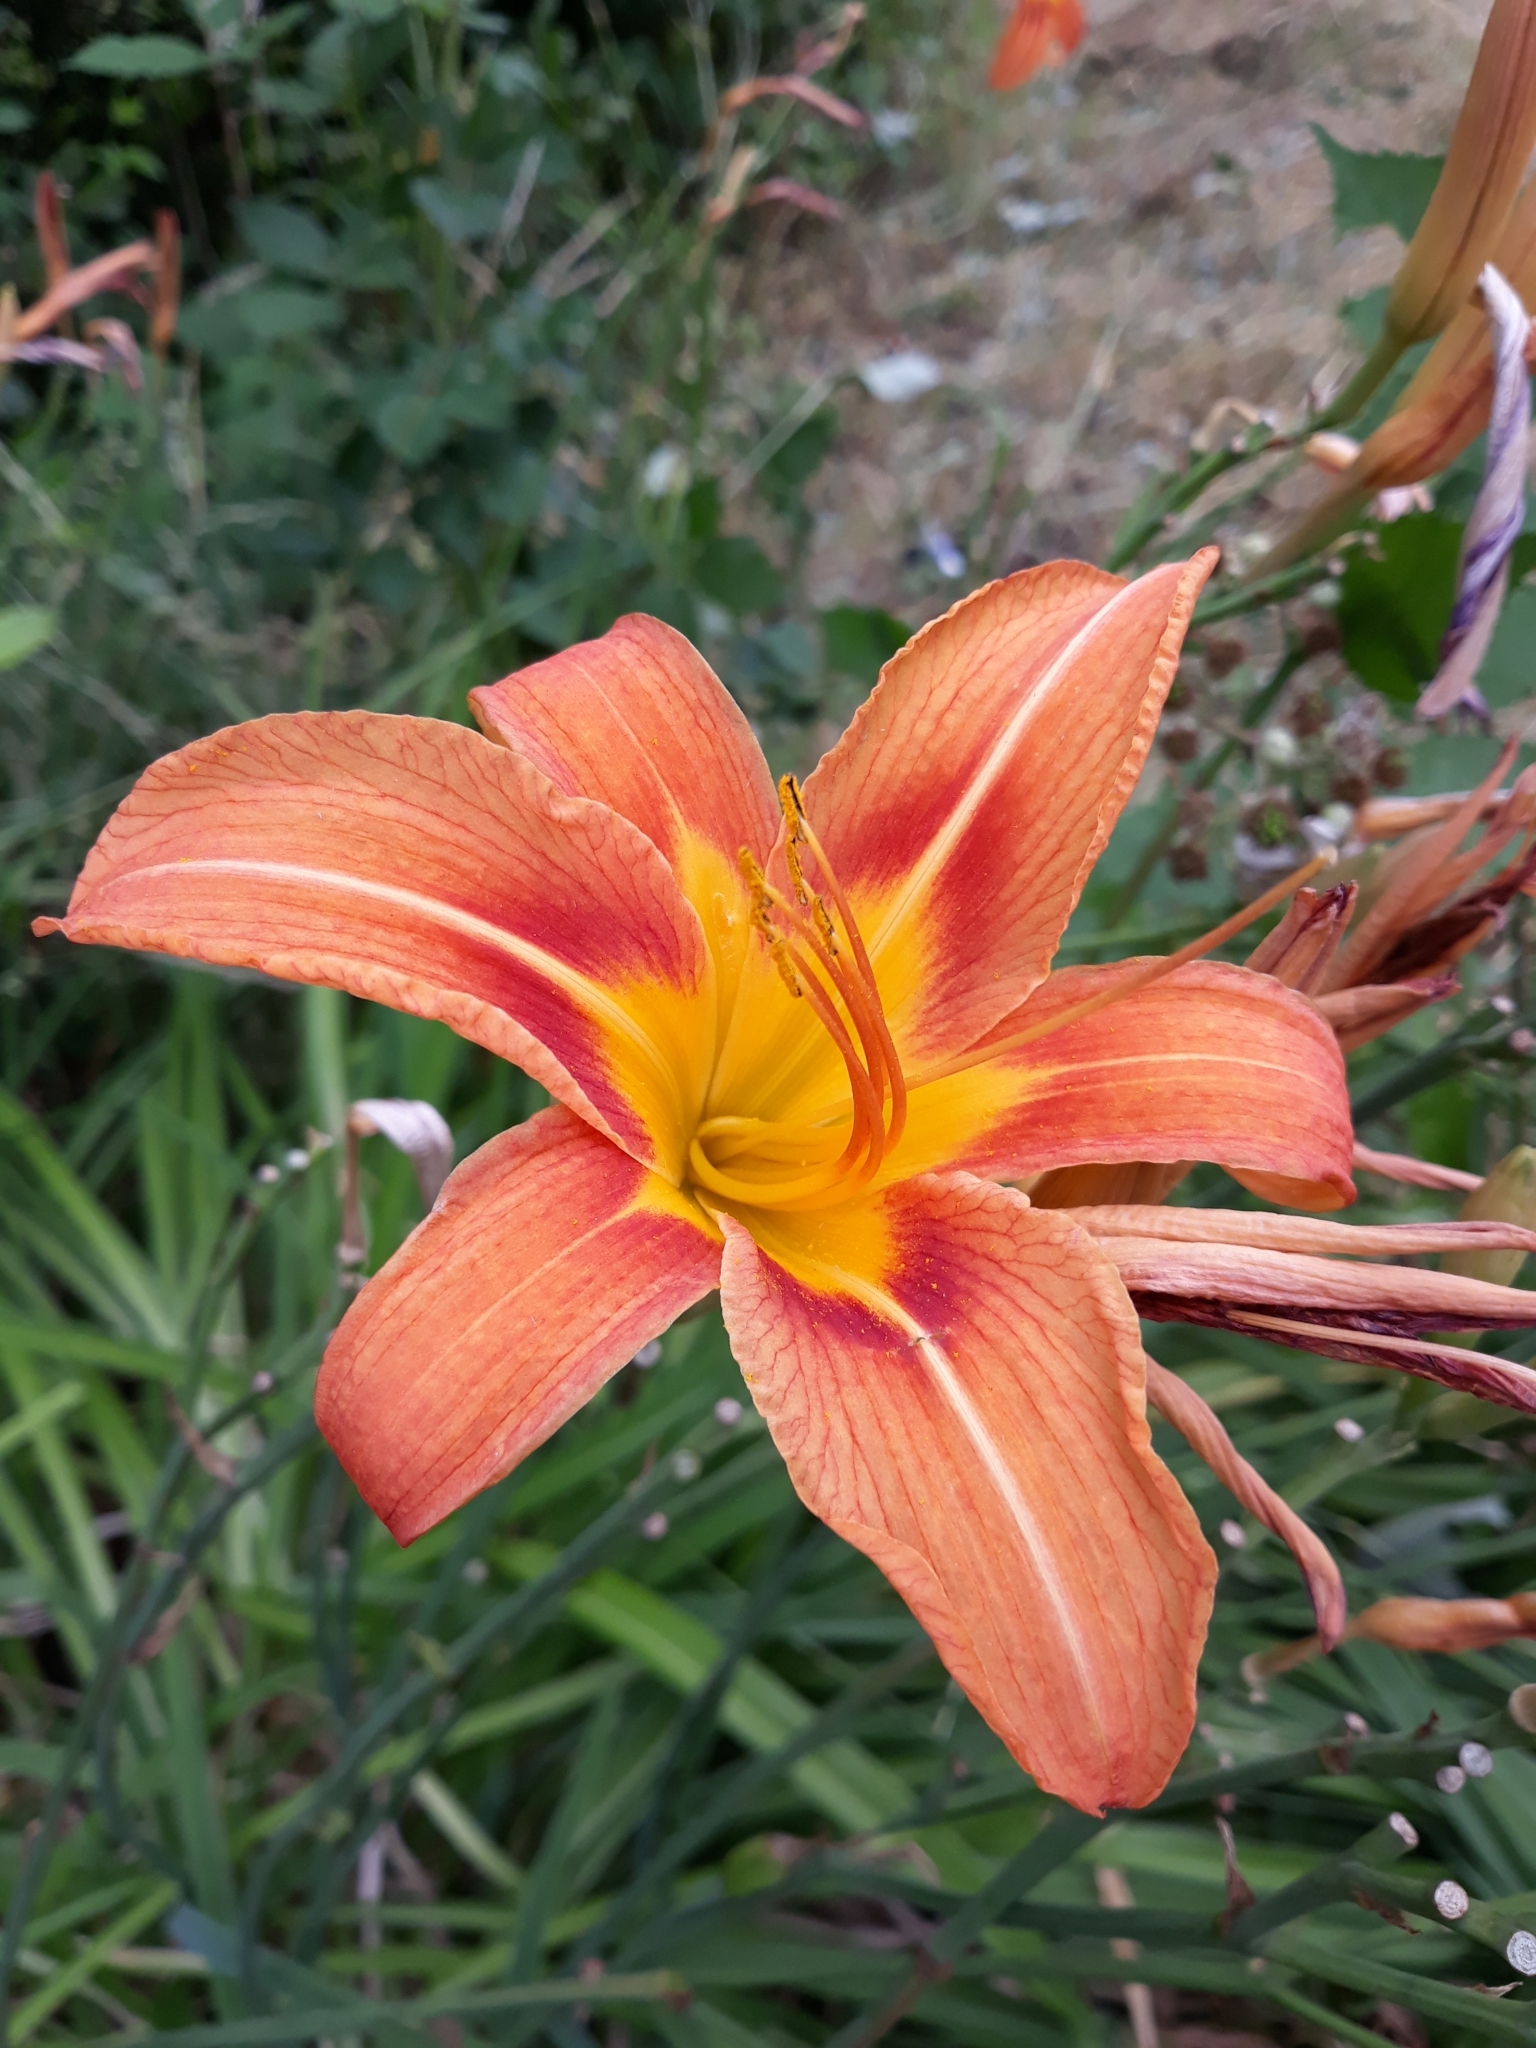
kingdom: Plantae
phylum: Tracheophyta
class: Liliopsida
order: Asparagales
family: Asphodelaceae
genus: Hemerocallis
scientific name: Hemerocallis fulva
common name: Orange day-lily
